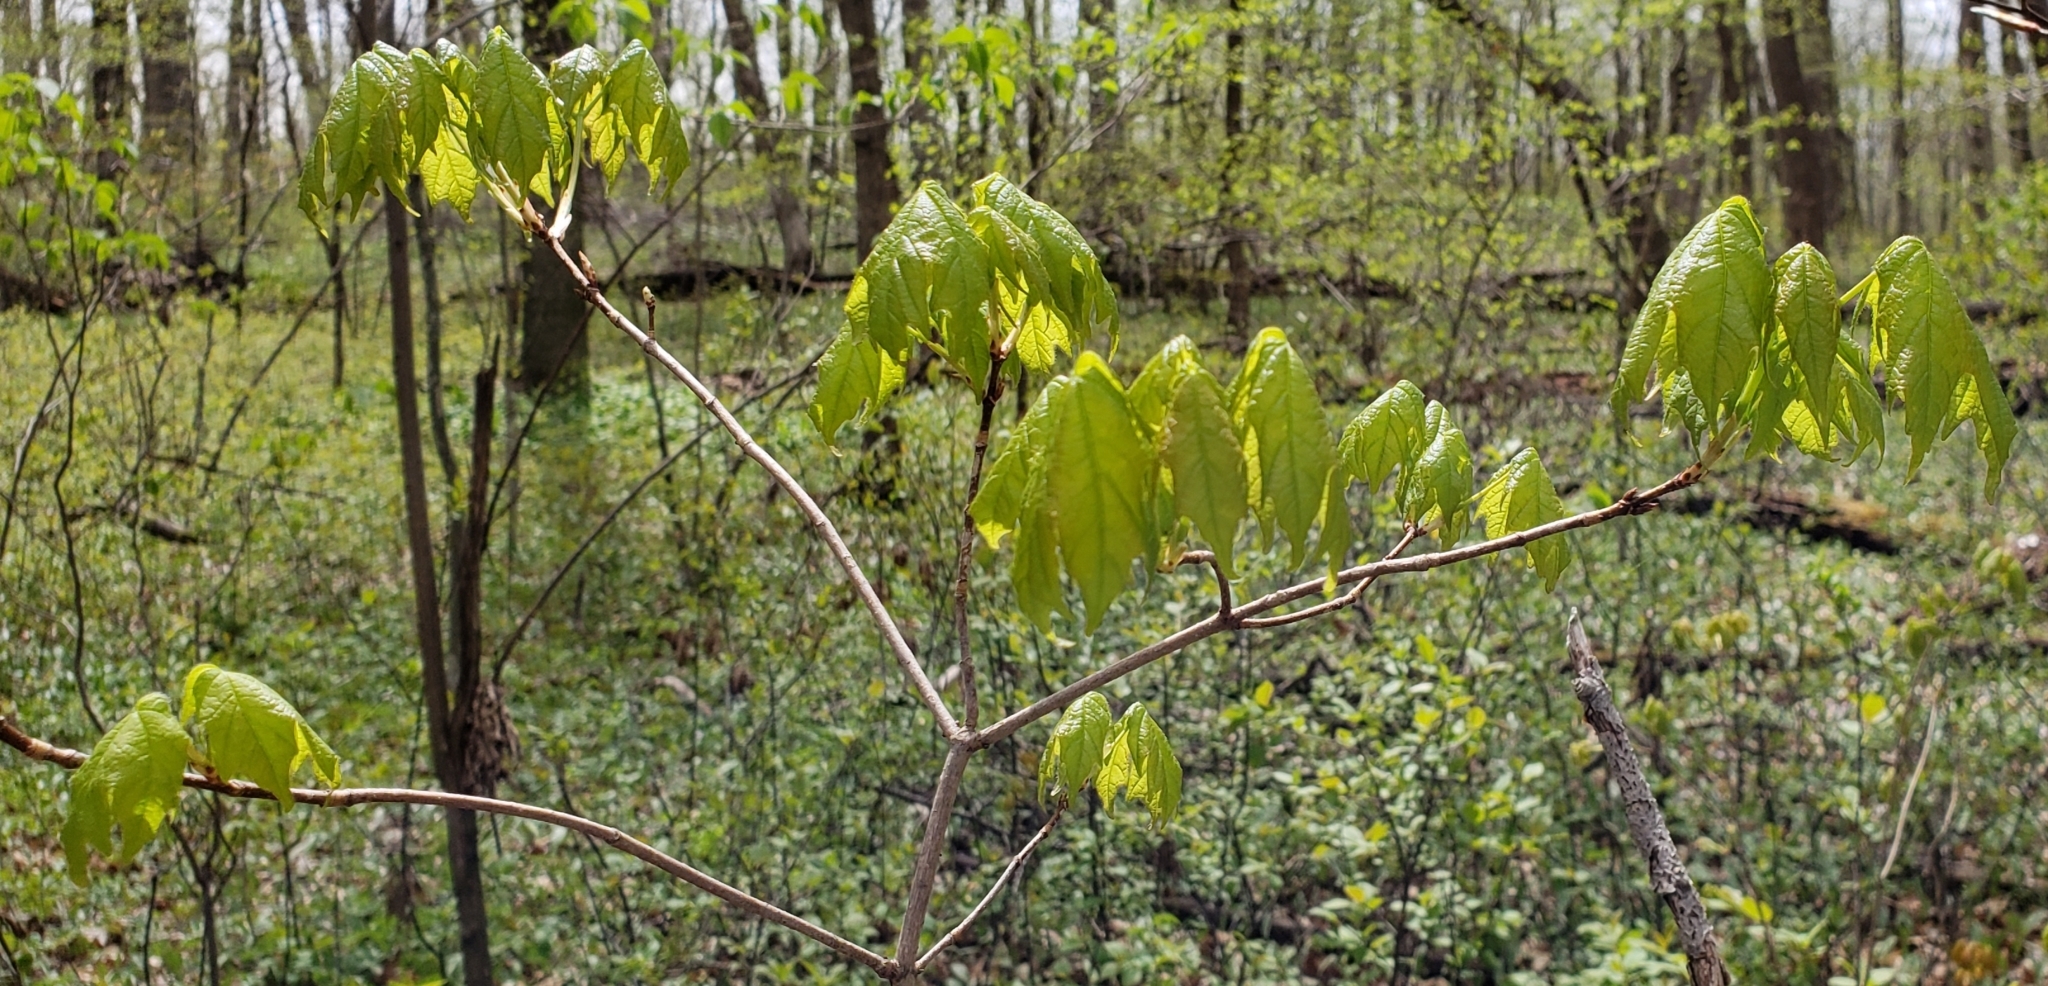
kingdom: Plantae
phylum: Tracheophyta
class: Magnoliopsida
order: Sapindales
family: Sapindaceae
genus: Acer
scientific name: Acer saccharum
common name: Sugar maple
